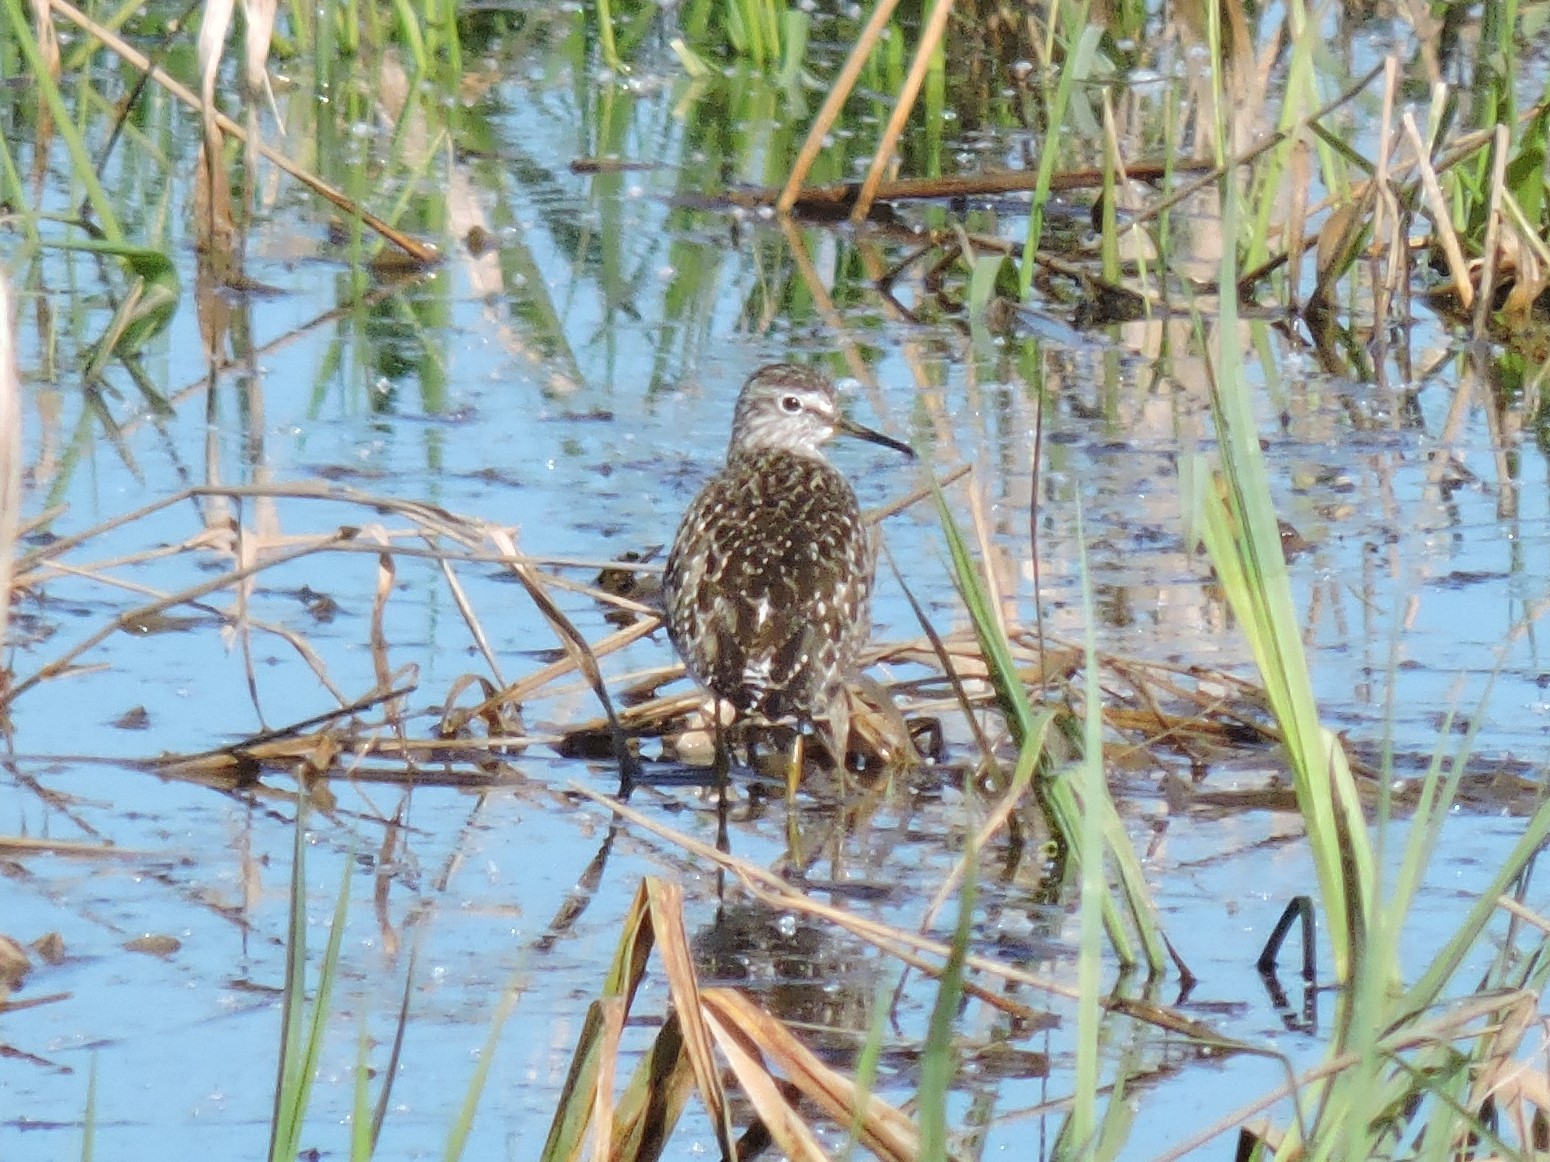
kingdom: Animalia
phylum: Chordata
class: Aves
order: Charadriiformes
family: Scolopacidae
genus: Tringa
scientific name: Tringa glareola
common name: Wood sandpiper
